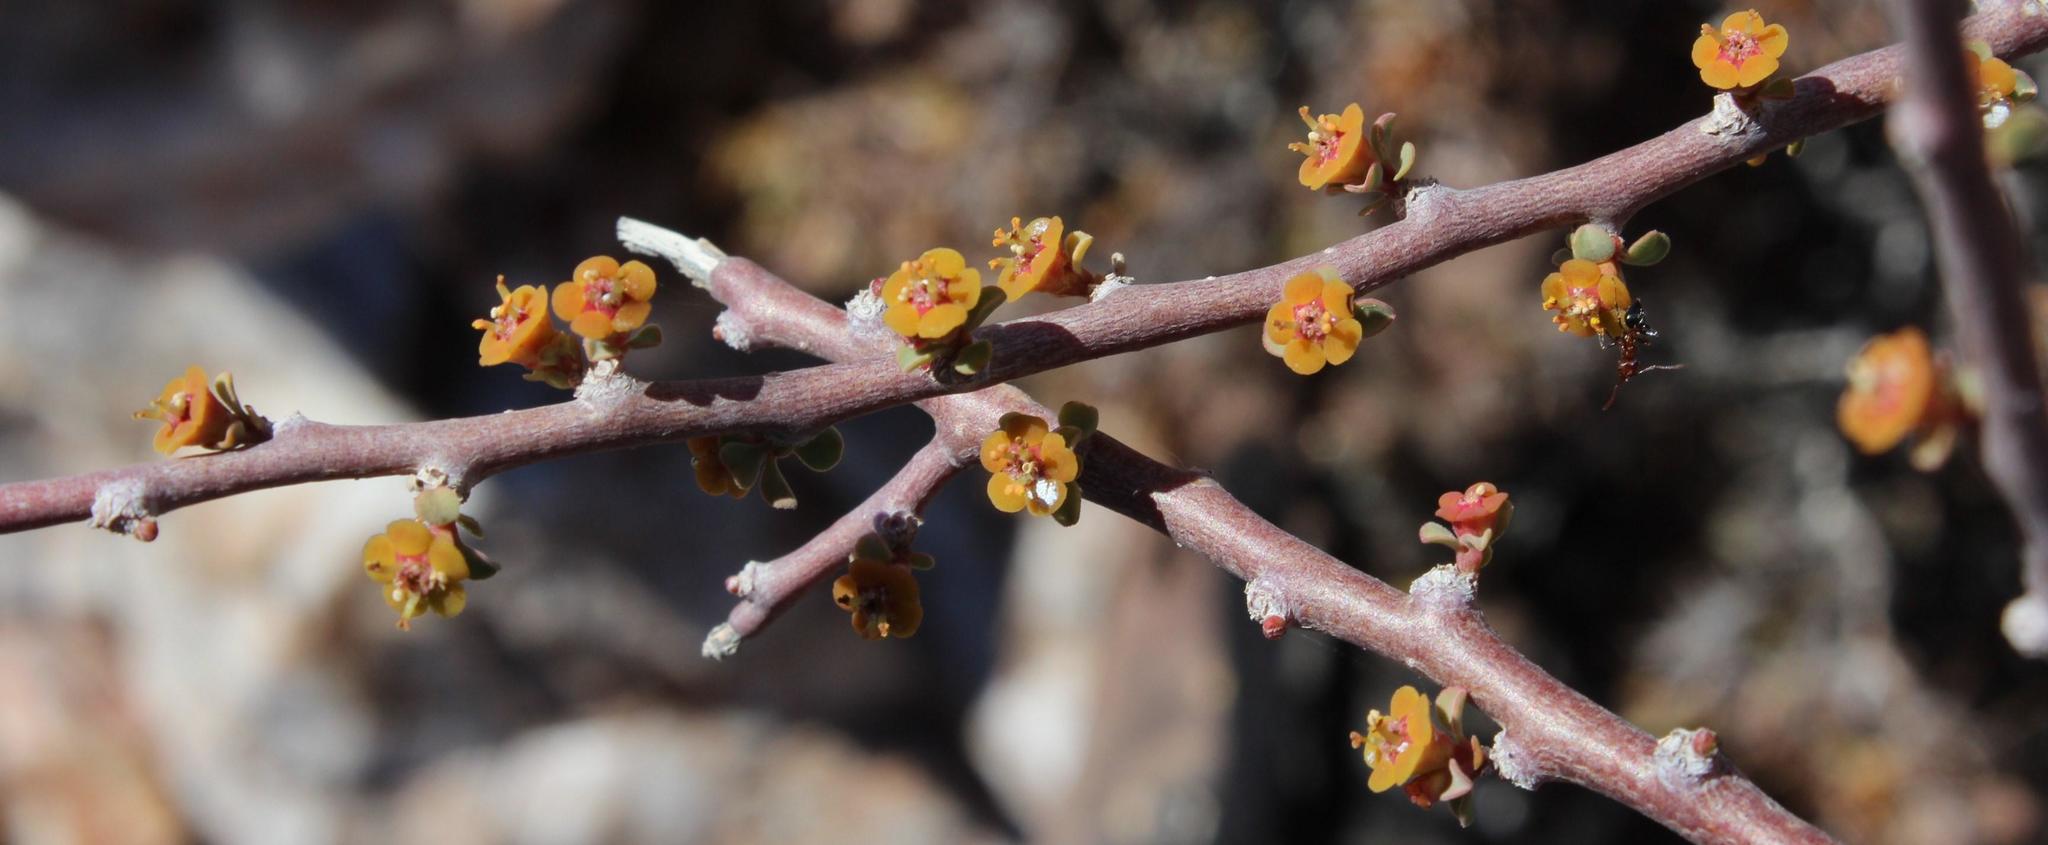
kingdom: Plantae
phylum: Tracheophyta
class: Magnoliopsida
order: Malpighiales
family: Euphorbiaceae
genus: Euphorbia
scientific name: Euphorbia guerichiana
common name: Paper-barked milkbush
